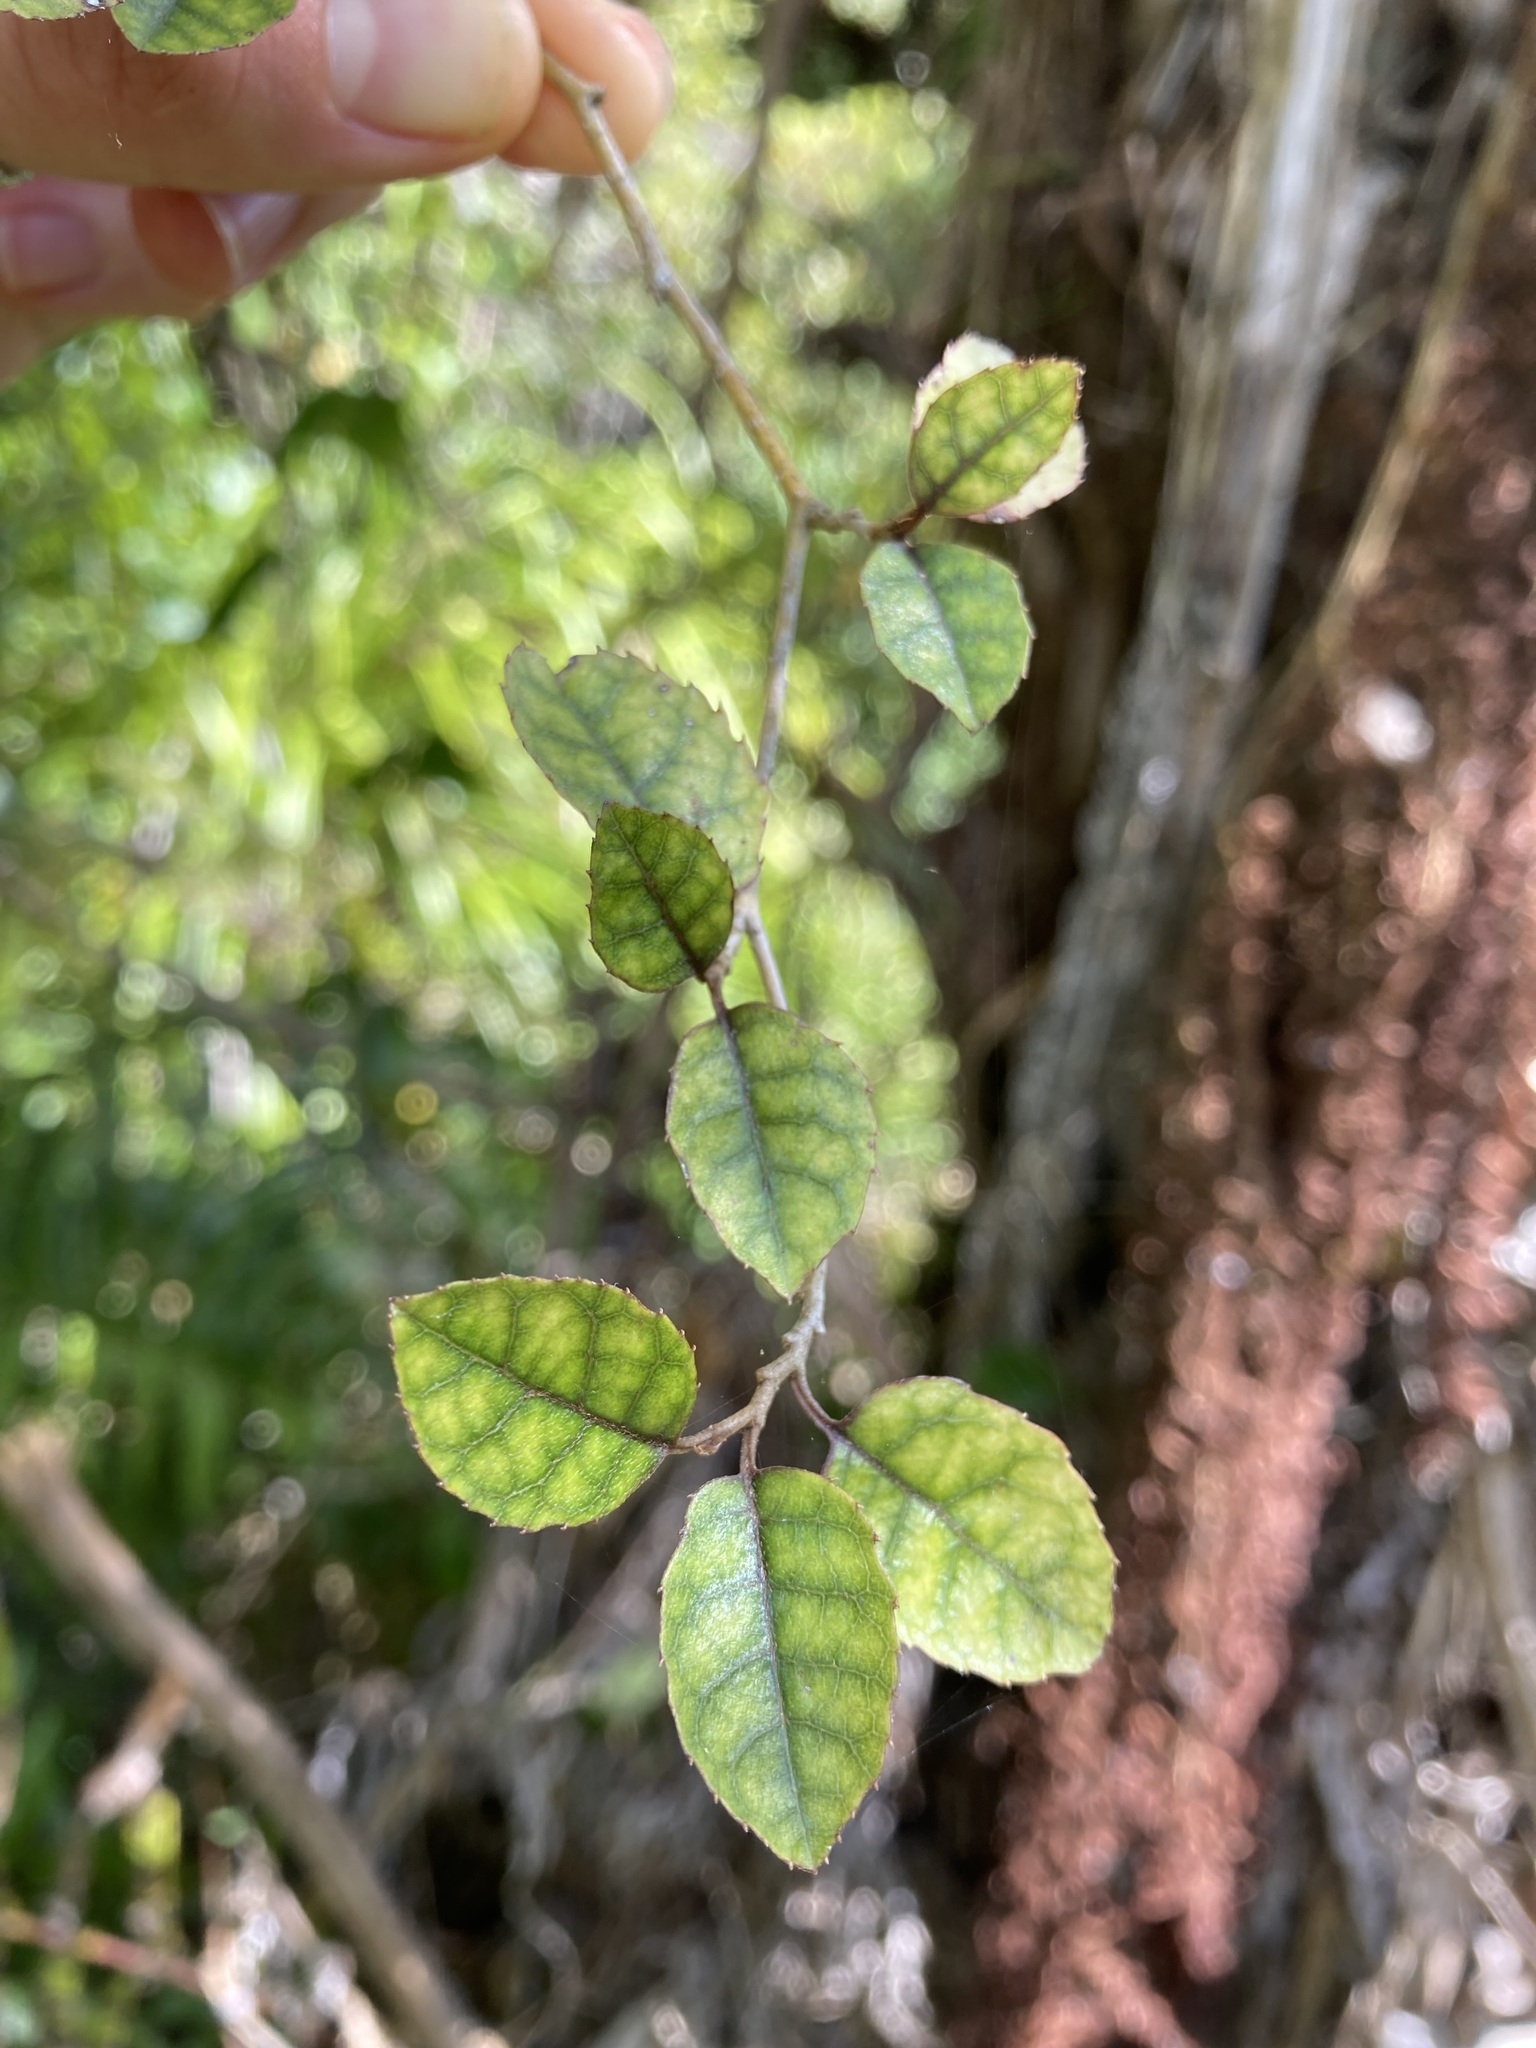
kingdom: Plantae
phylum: Tracheophyta
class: Magnoliopsida
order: Asterales
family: Rousseaceae
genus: Carpodetus
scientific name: Carpodetus serratus
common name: White mapau
